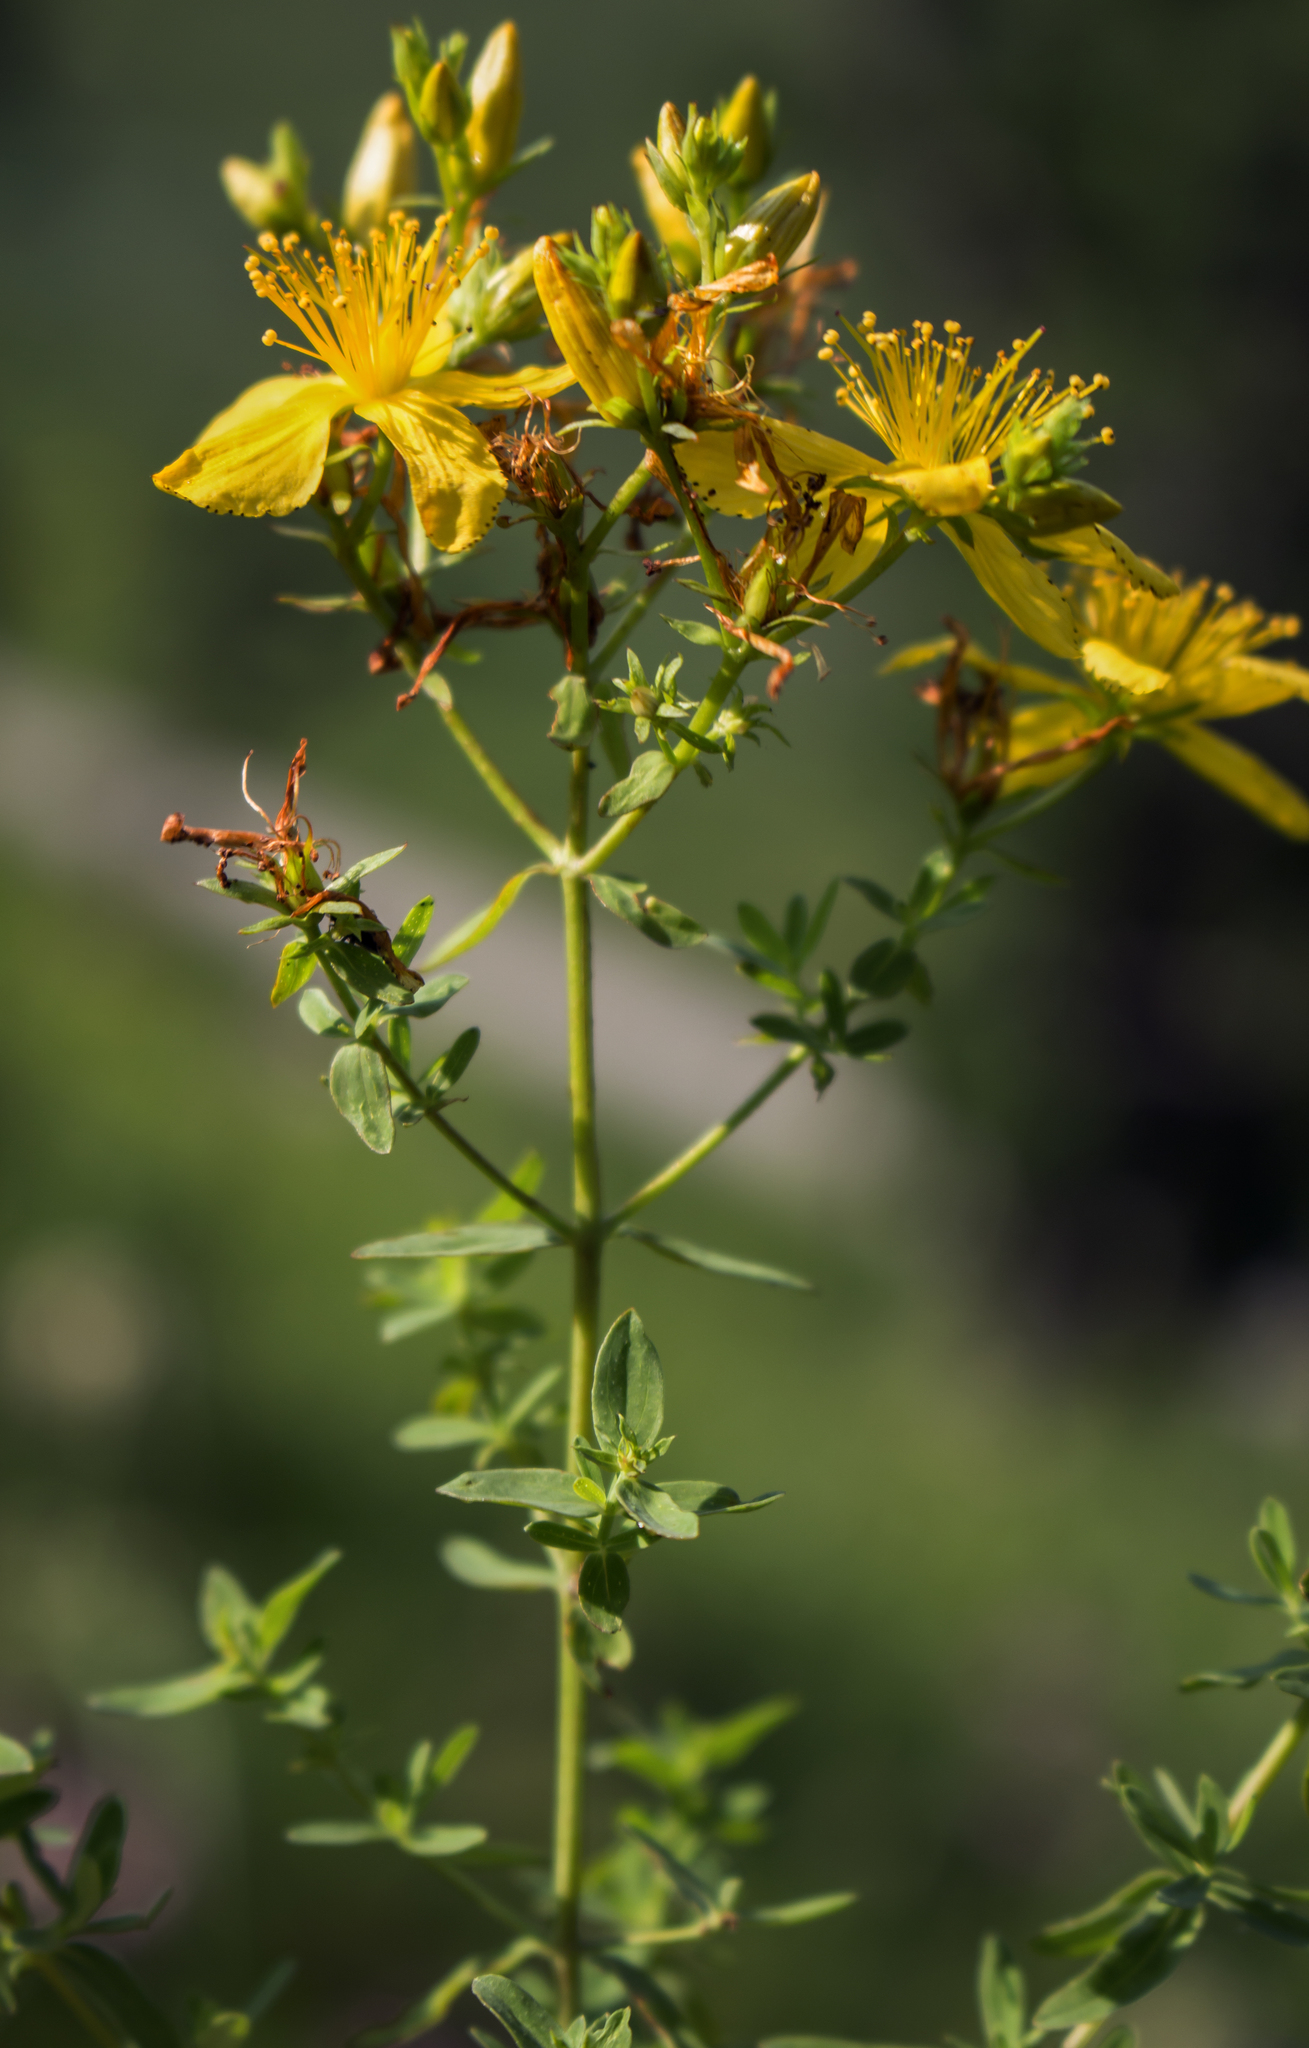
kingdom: Plantae
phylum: Tracheophyta
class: Magnoliopsida
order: Malpighiales
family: Hypericaceae
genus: Hypericum
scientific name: Hypericum perforatum
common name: Common st. johnswort
